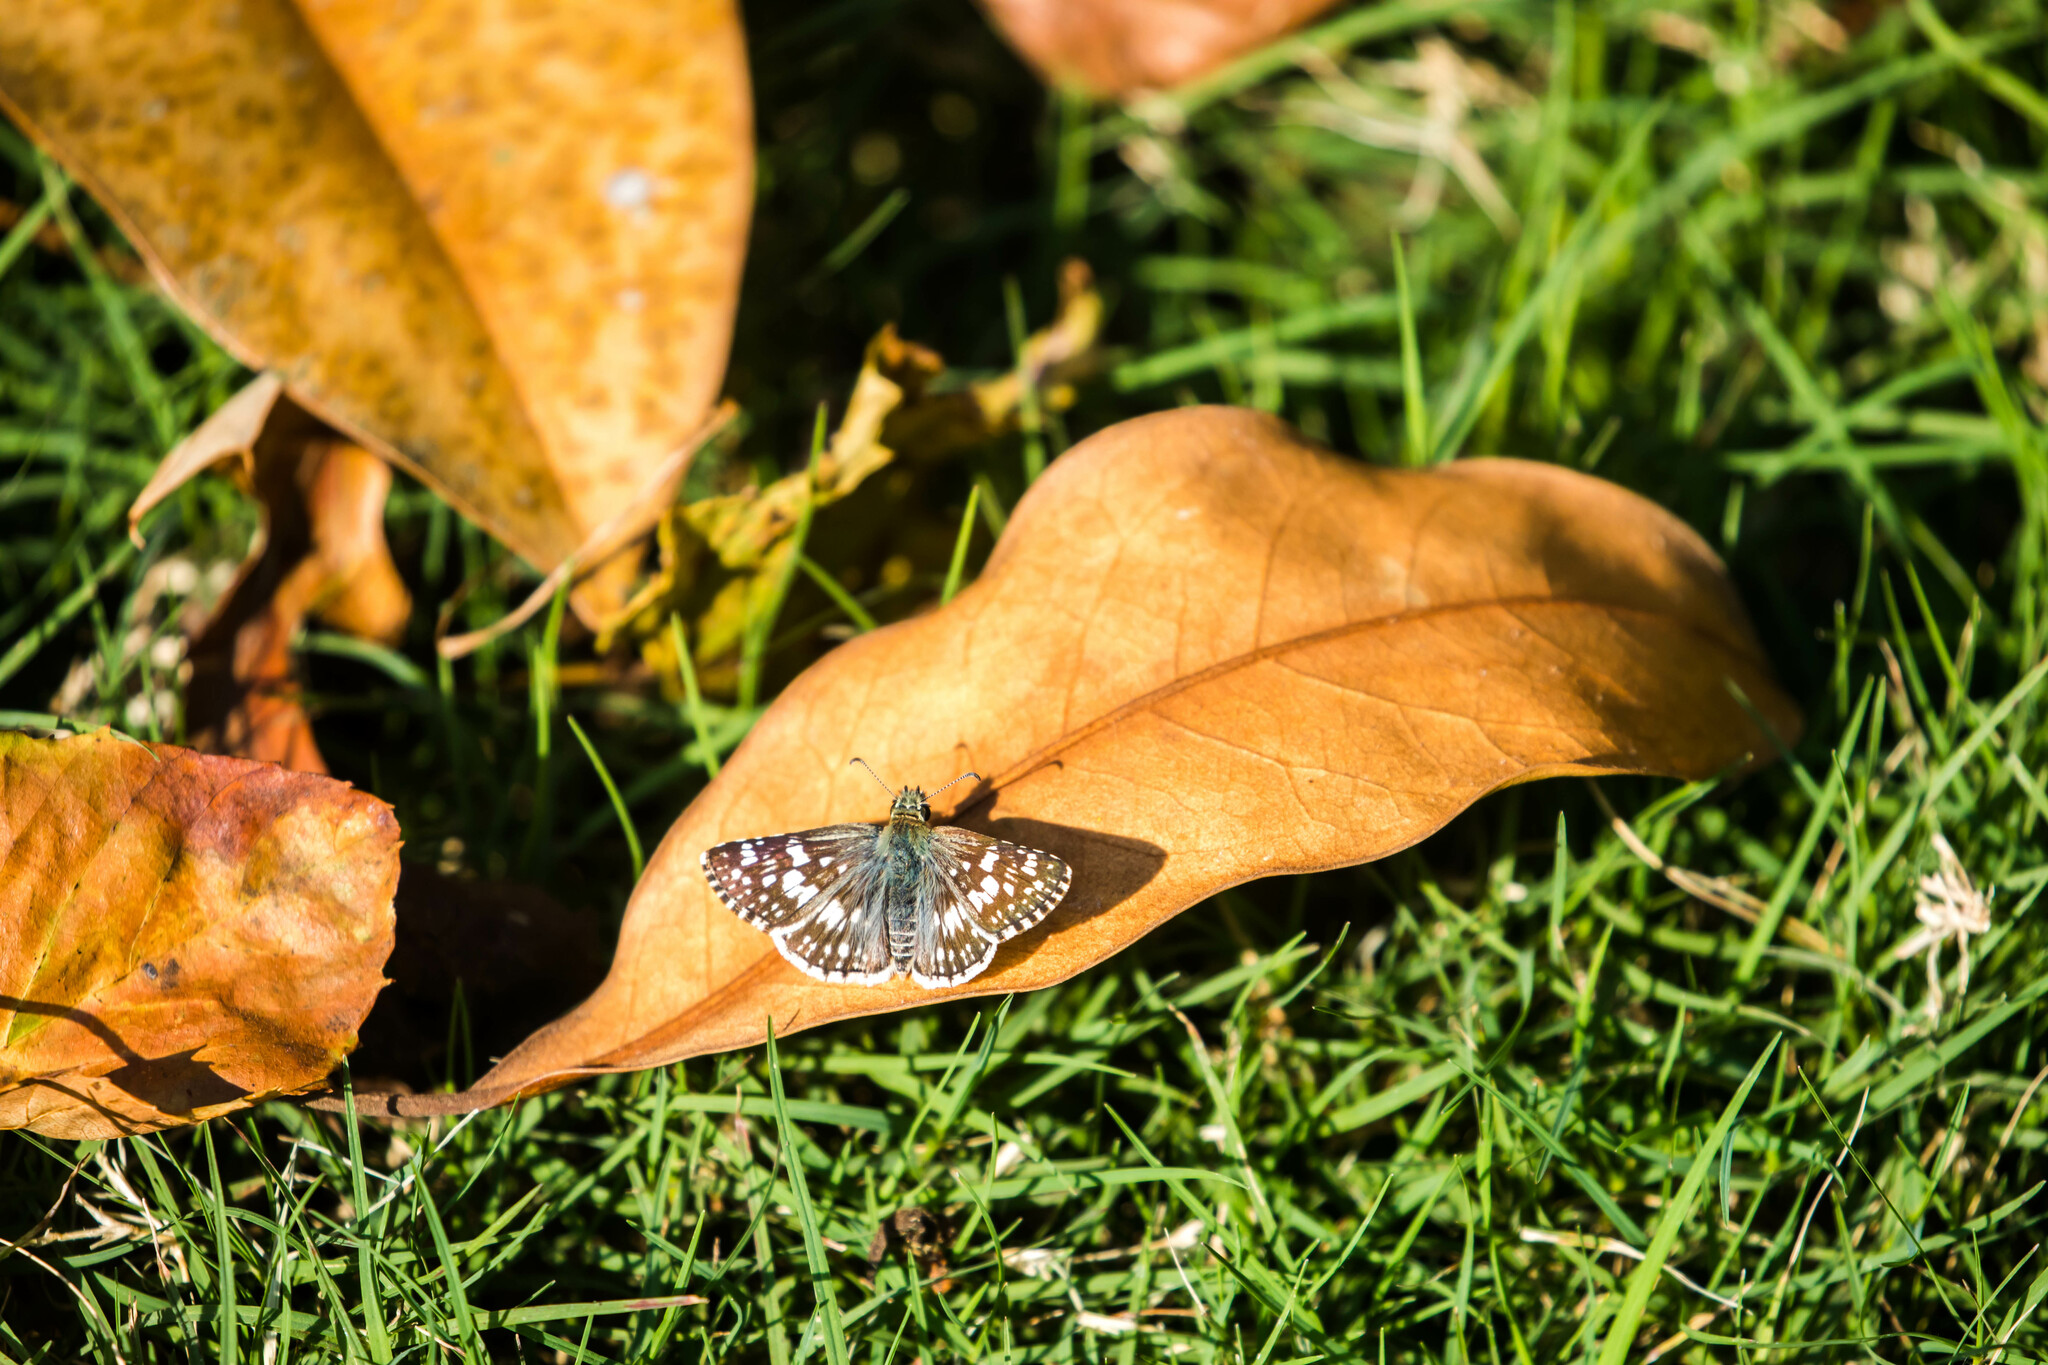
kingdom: Animalia
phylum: Arthropoda
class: Insecta
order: Lepidoptera
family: Hesperiidae
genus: Burnsius
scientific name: Burnsius communis
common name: Common checkered-skipper
